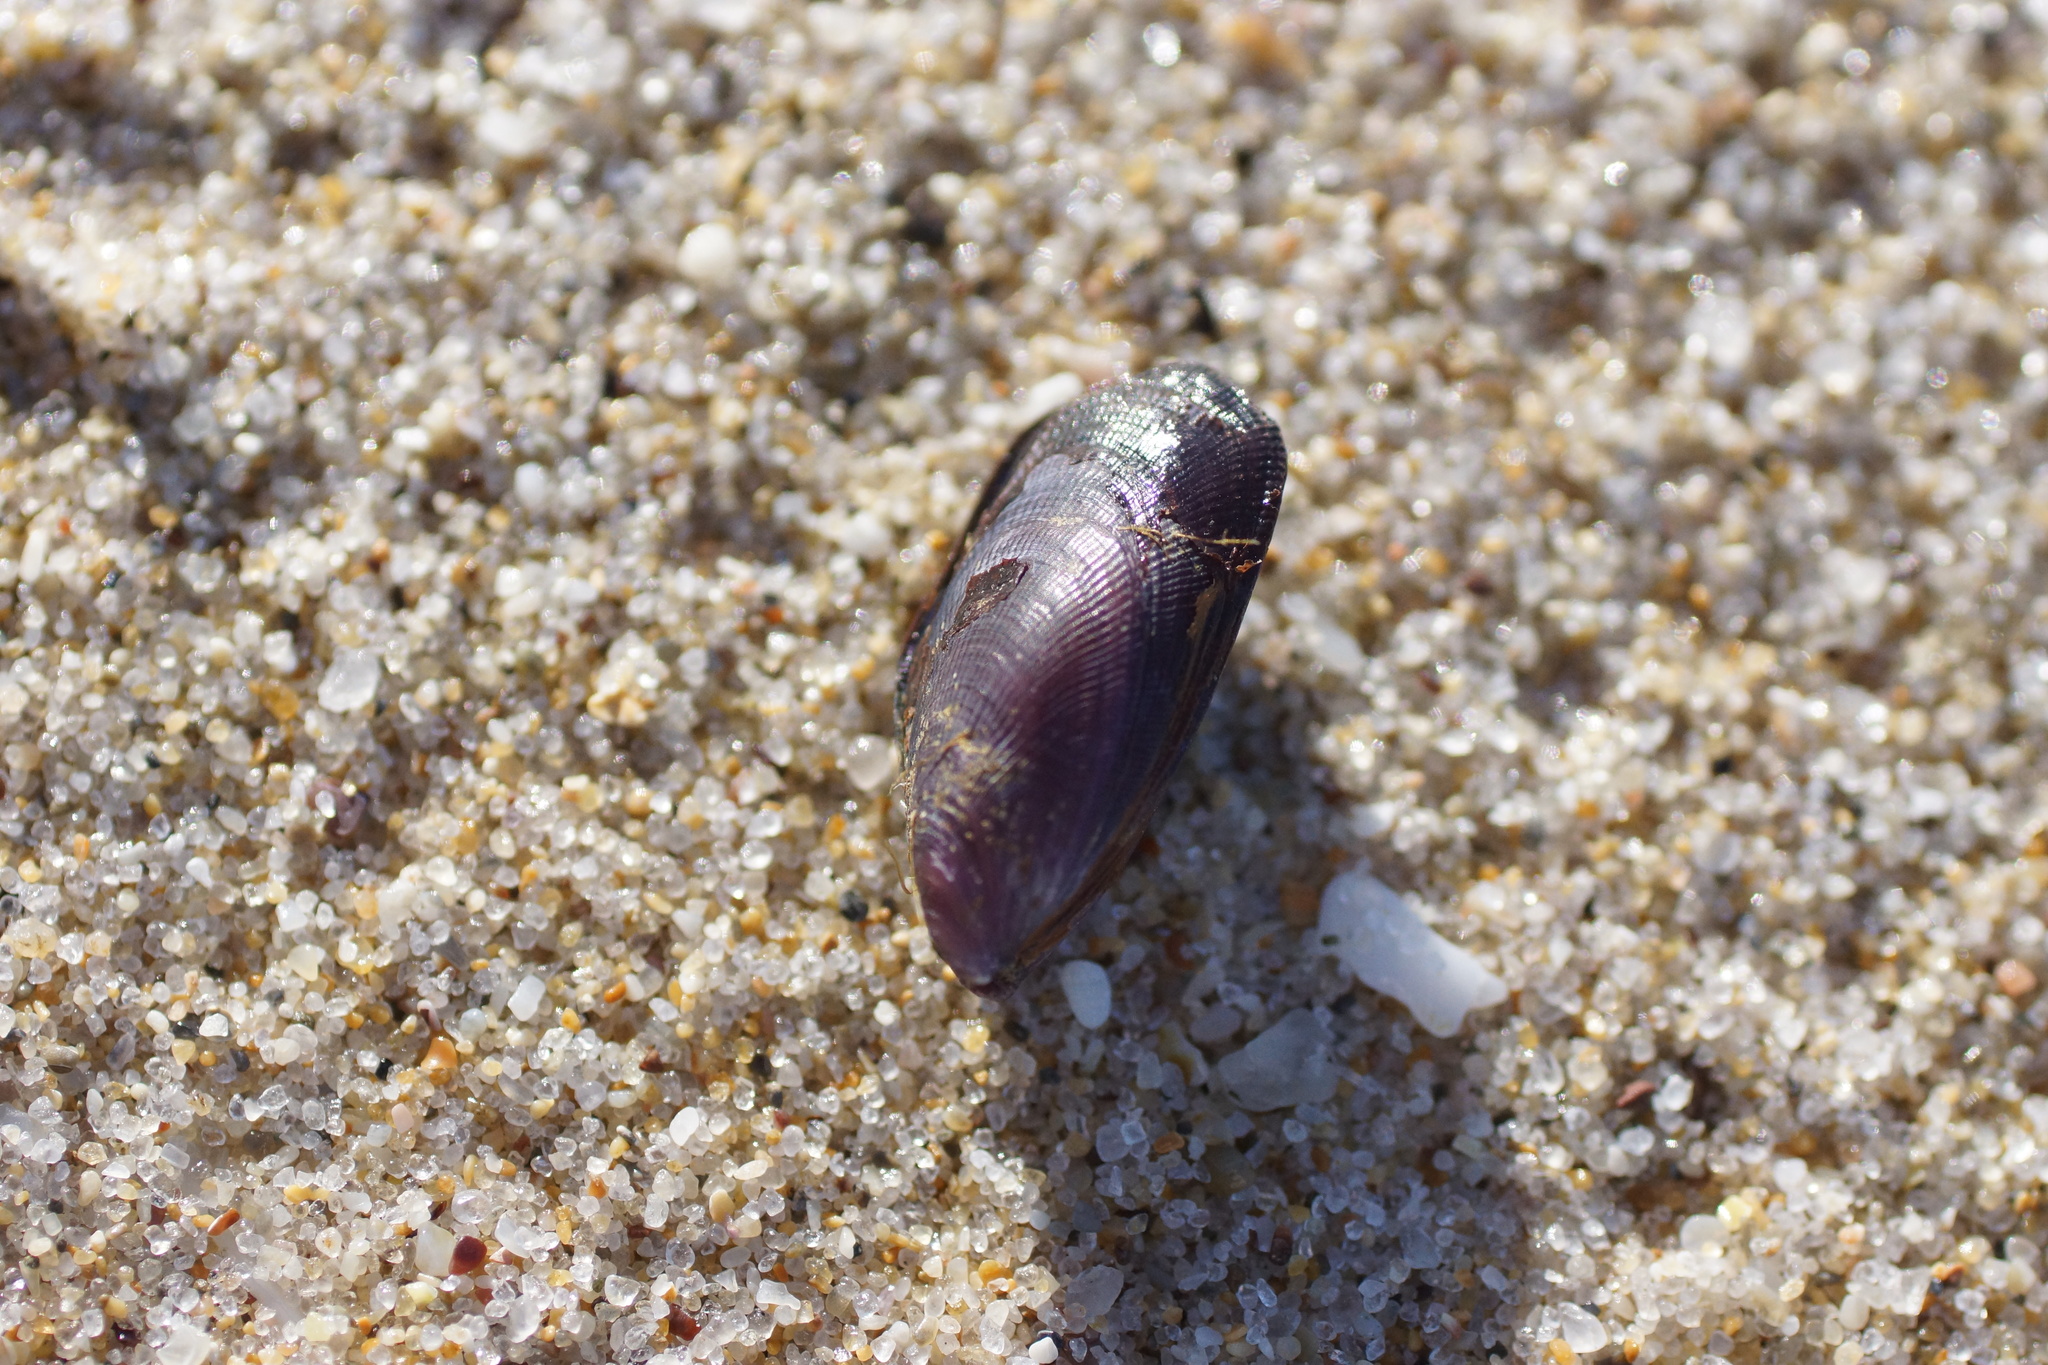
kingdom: Animalia
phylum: Mollusca
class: Bivalvia
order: Mytilida
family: Mytilidae
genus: Brachidontes
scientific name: Brachidontes rostratus
